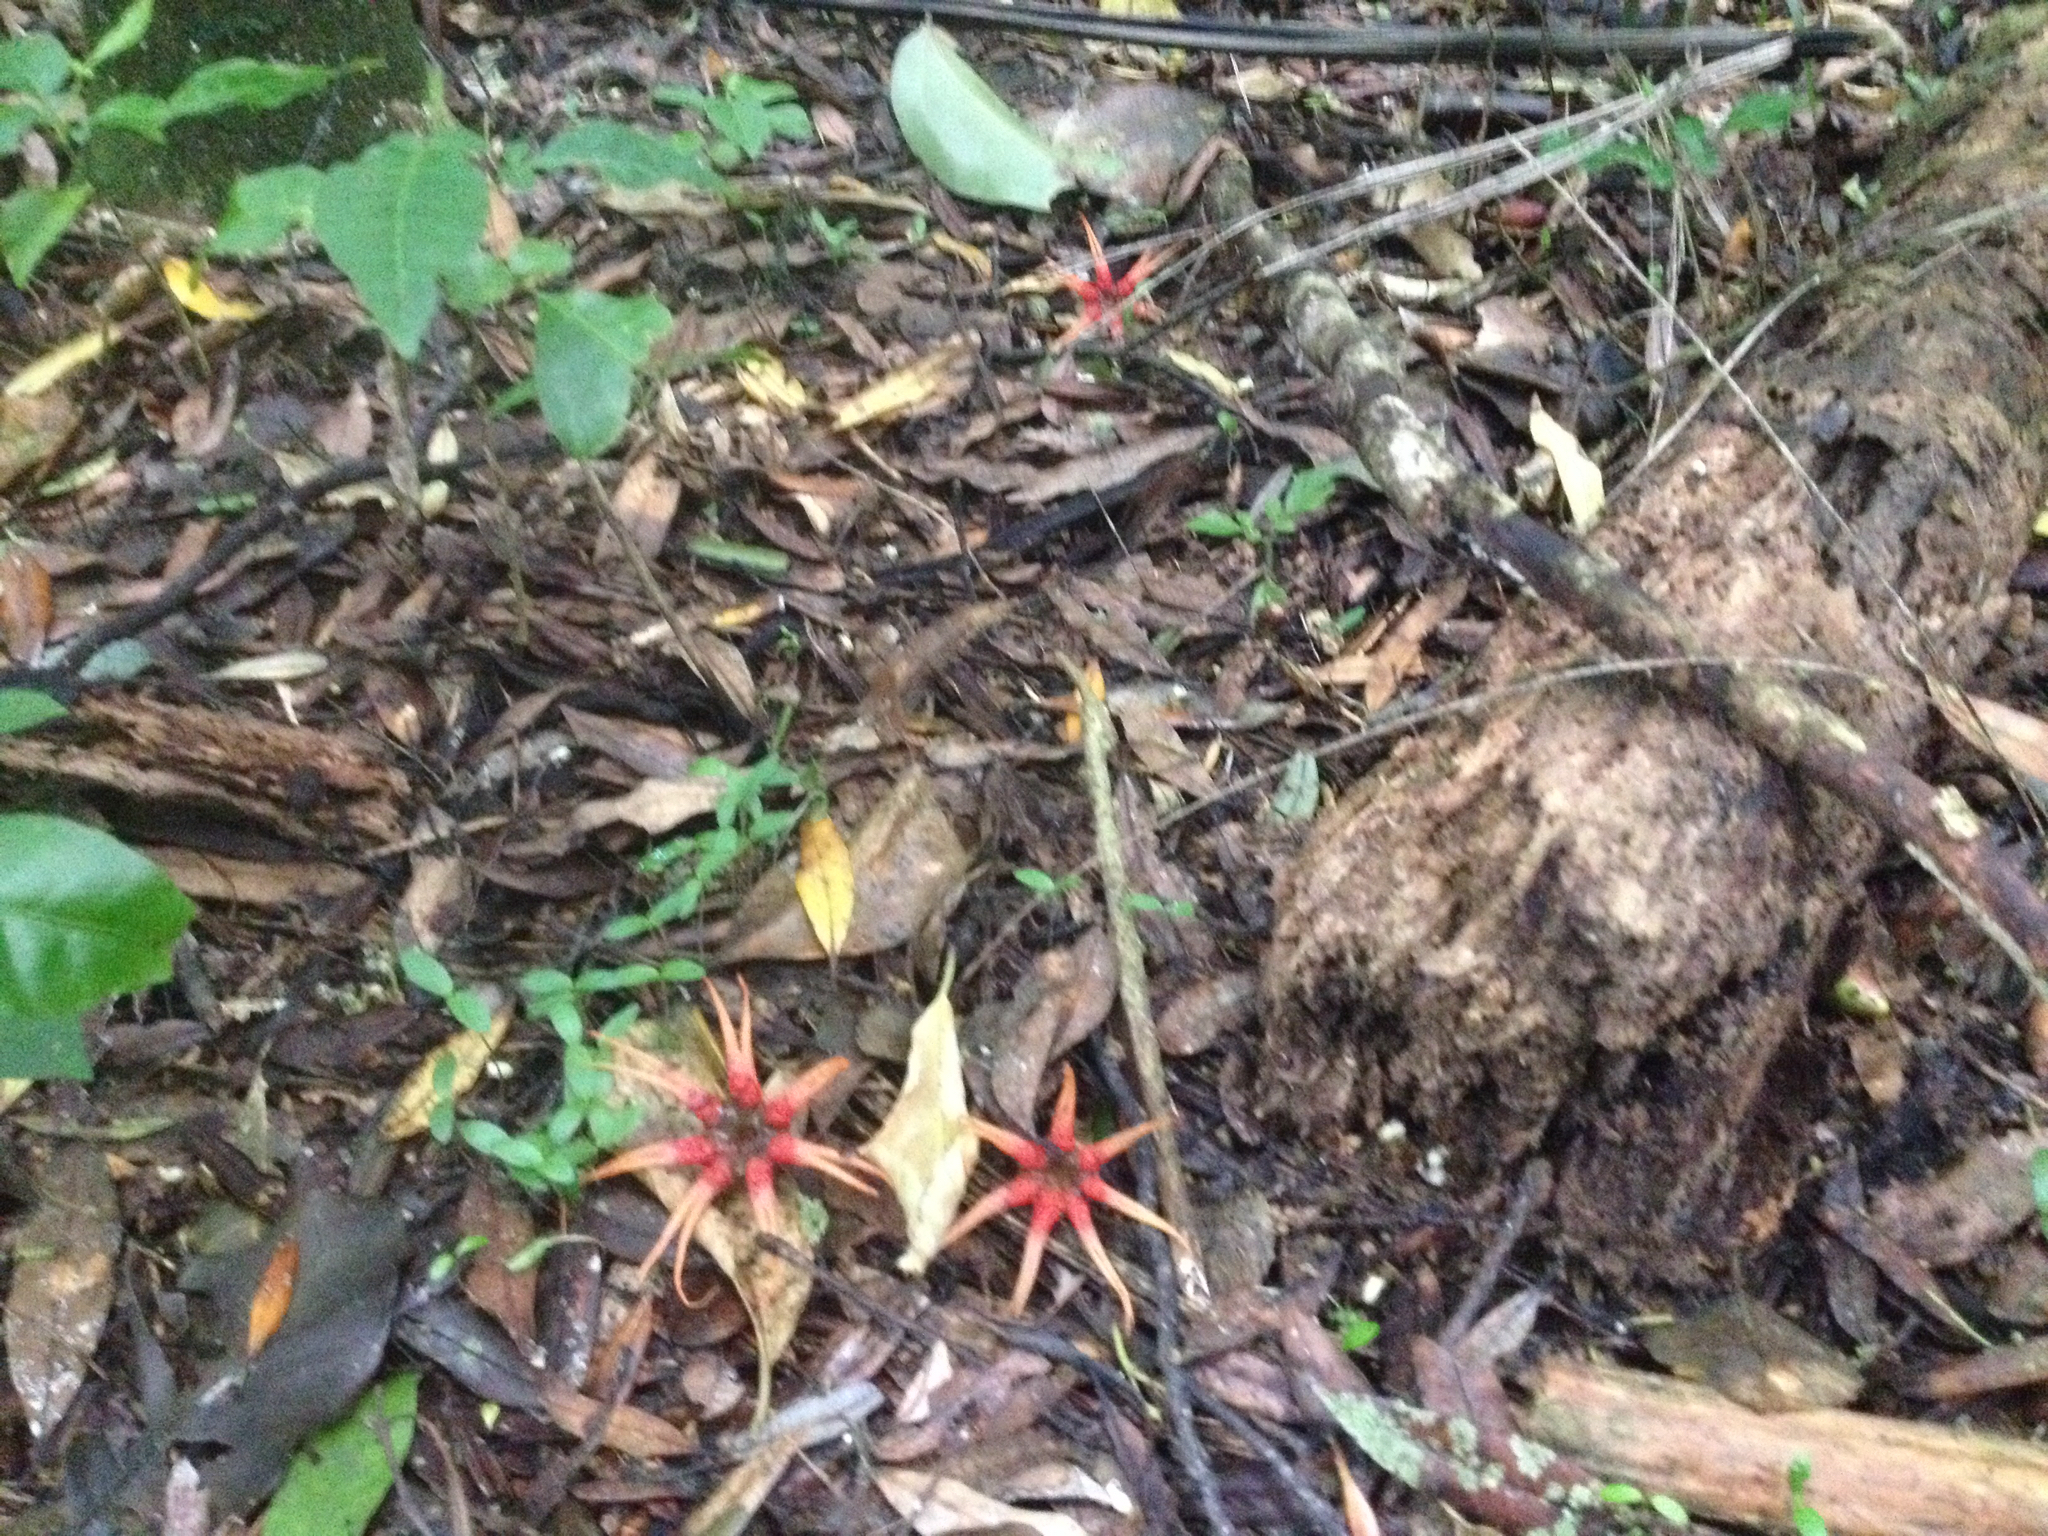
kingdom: Fungi
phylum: Basidiomycota
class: Agaricomycetes
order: Phallales
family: Phallaceae
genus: Aseroe
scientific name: Aseroe rubra
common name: Starfish fungus
